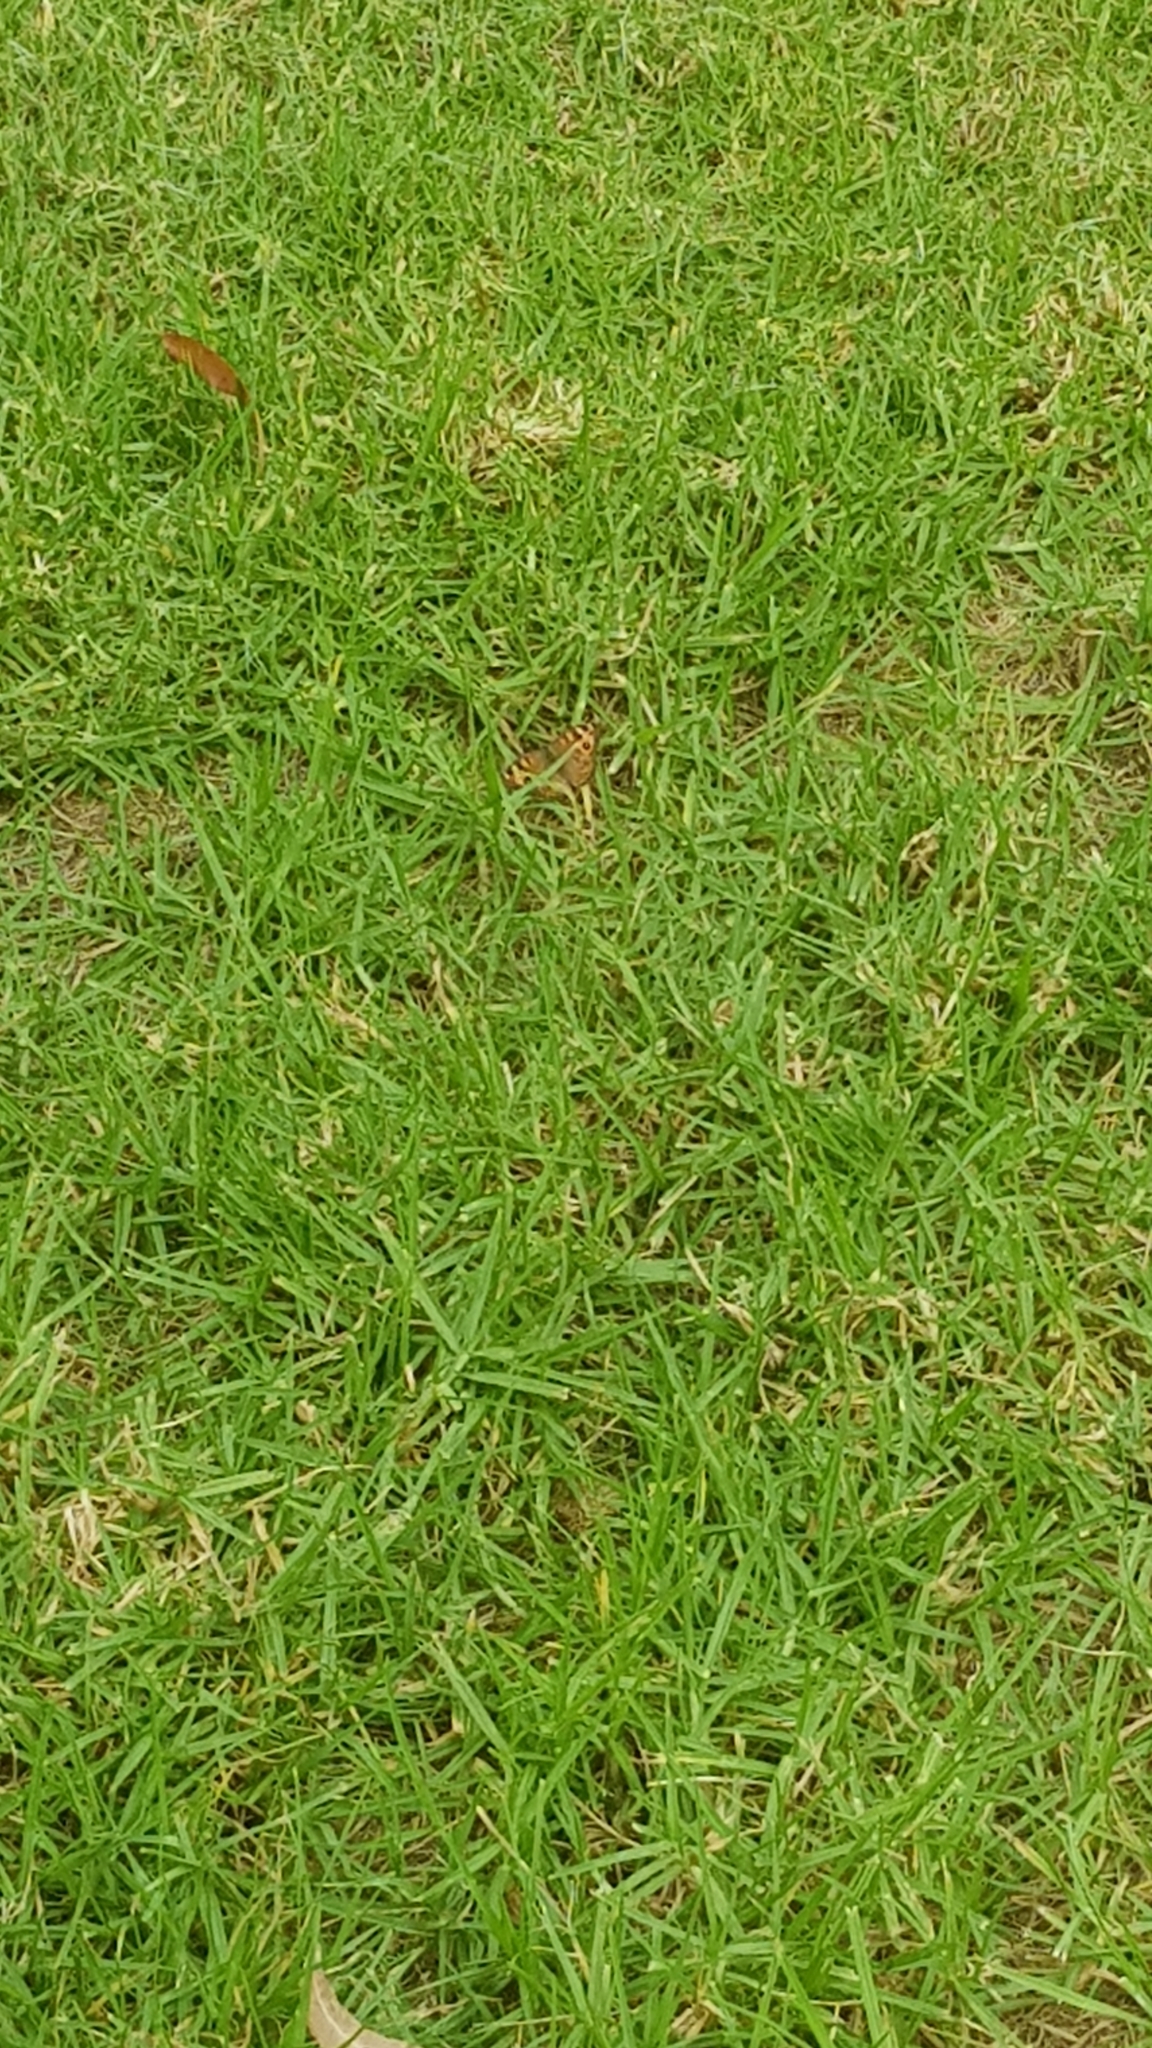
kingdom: Animalia
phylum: Arthropoda
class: Insecta
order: Lepidoptera
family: Nymphalidae
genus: Junonia
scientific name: Junonia villida
